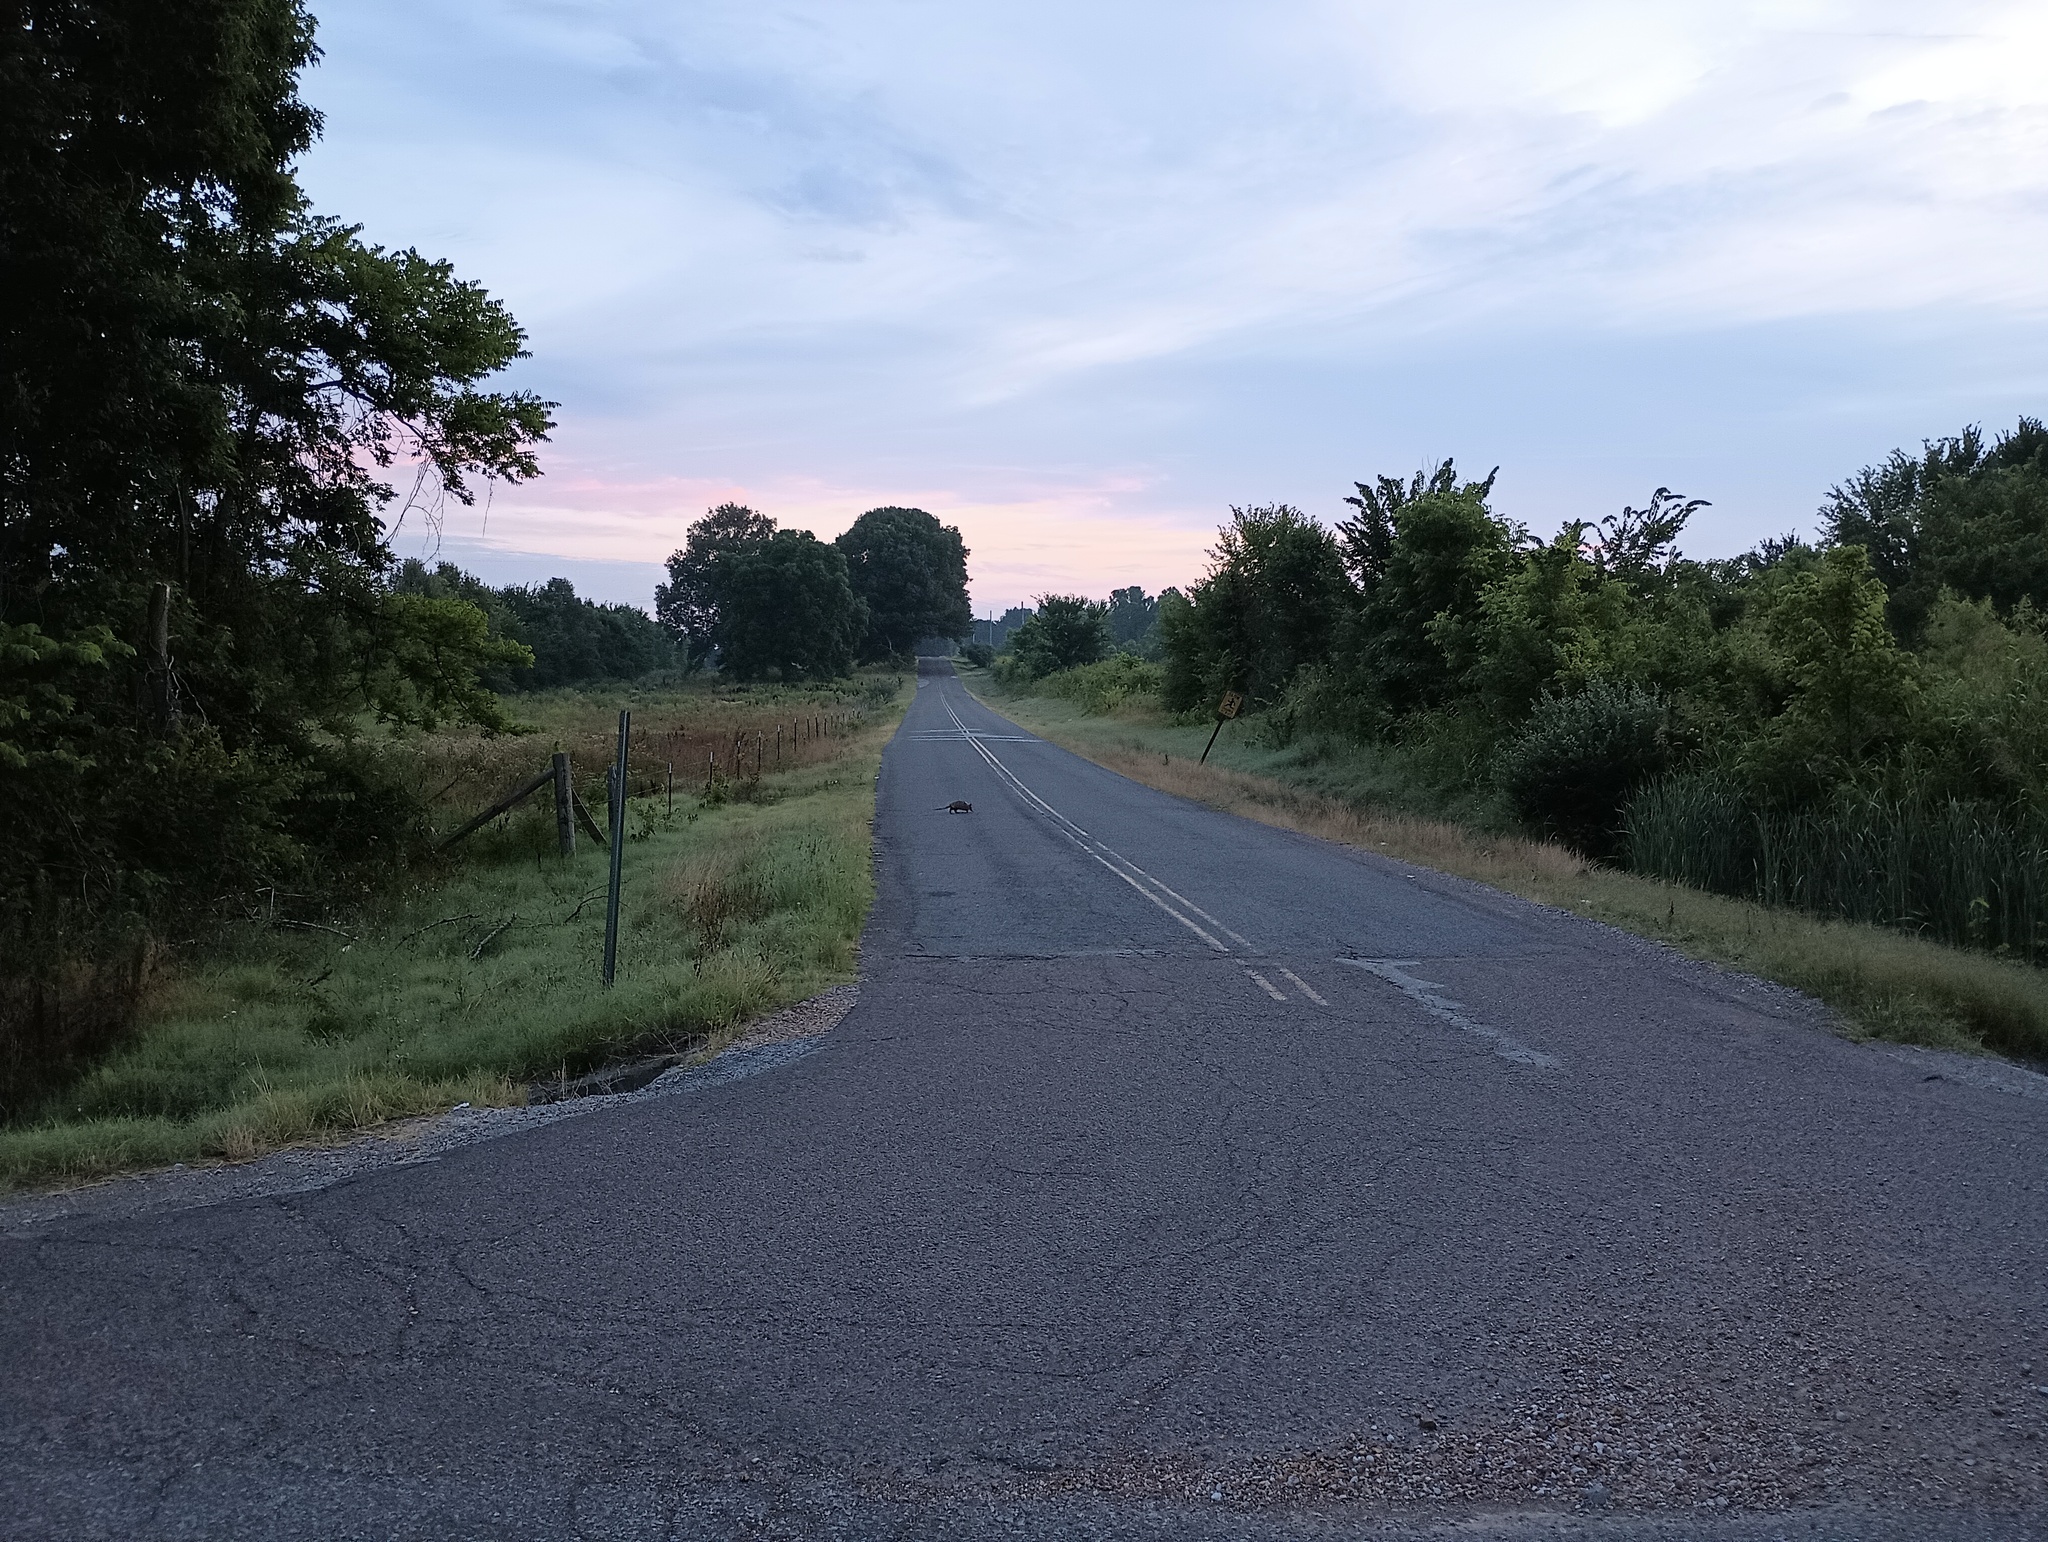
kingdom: Animalia
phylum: Chordata
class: Mammalia
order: Cingulata
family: Dasypodidae
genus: Dasypus
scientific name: Dasypus novemcinctus
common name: Nine-banded armadillo
